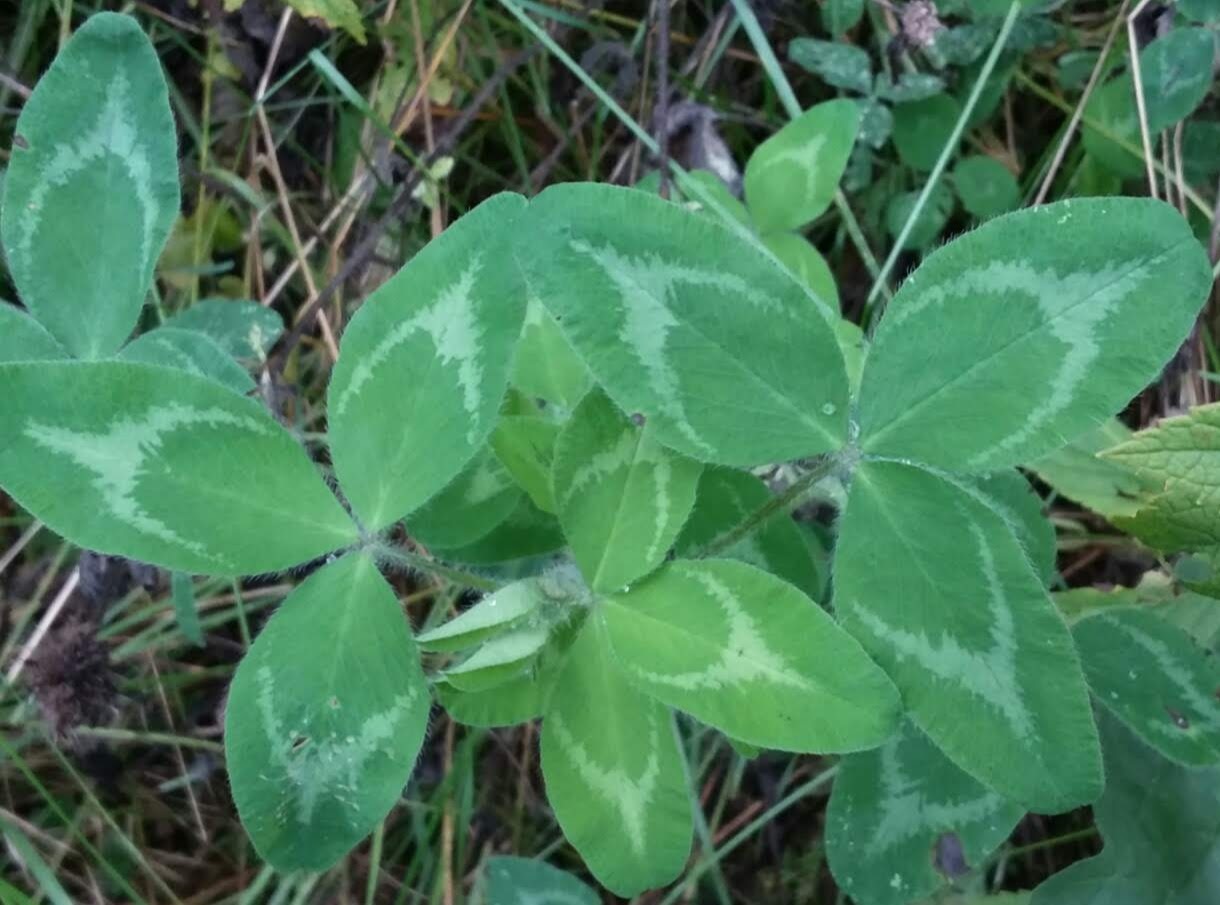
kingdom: Plantae
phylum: Tracheophyta
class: Magnoliopsida
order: Fabales
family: Fabaceae
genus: Trifolium
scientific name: Trifolium pratense
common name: Red clover
